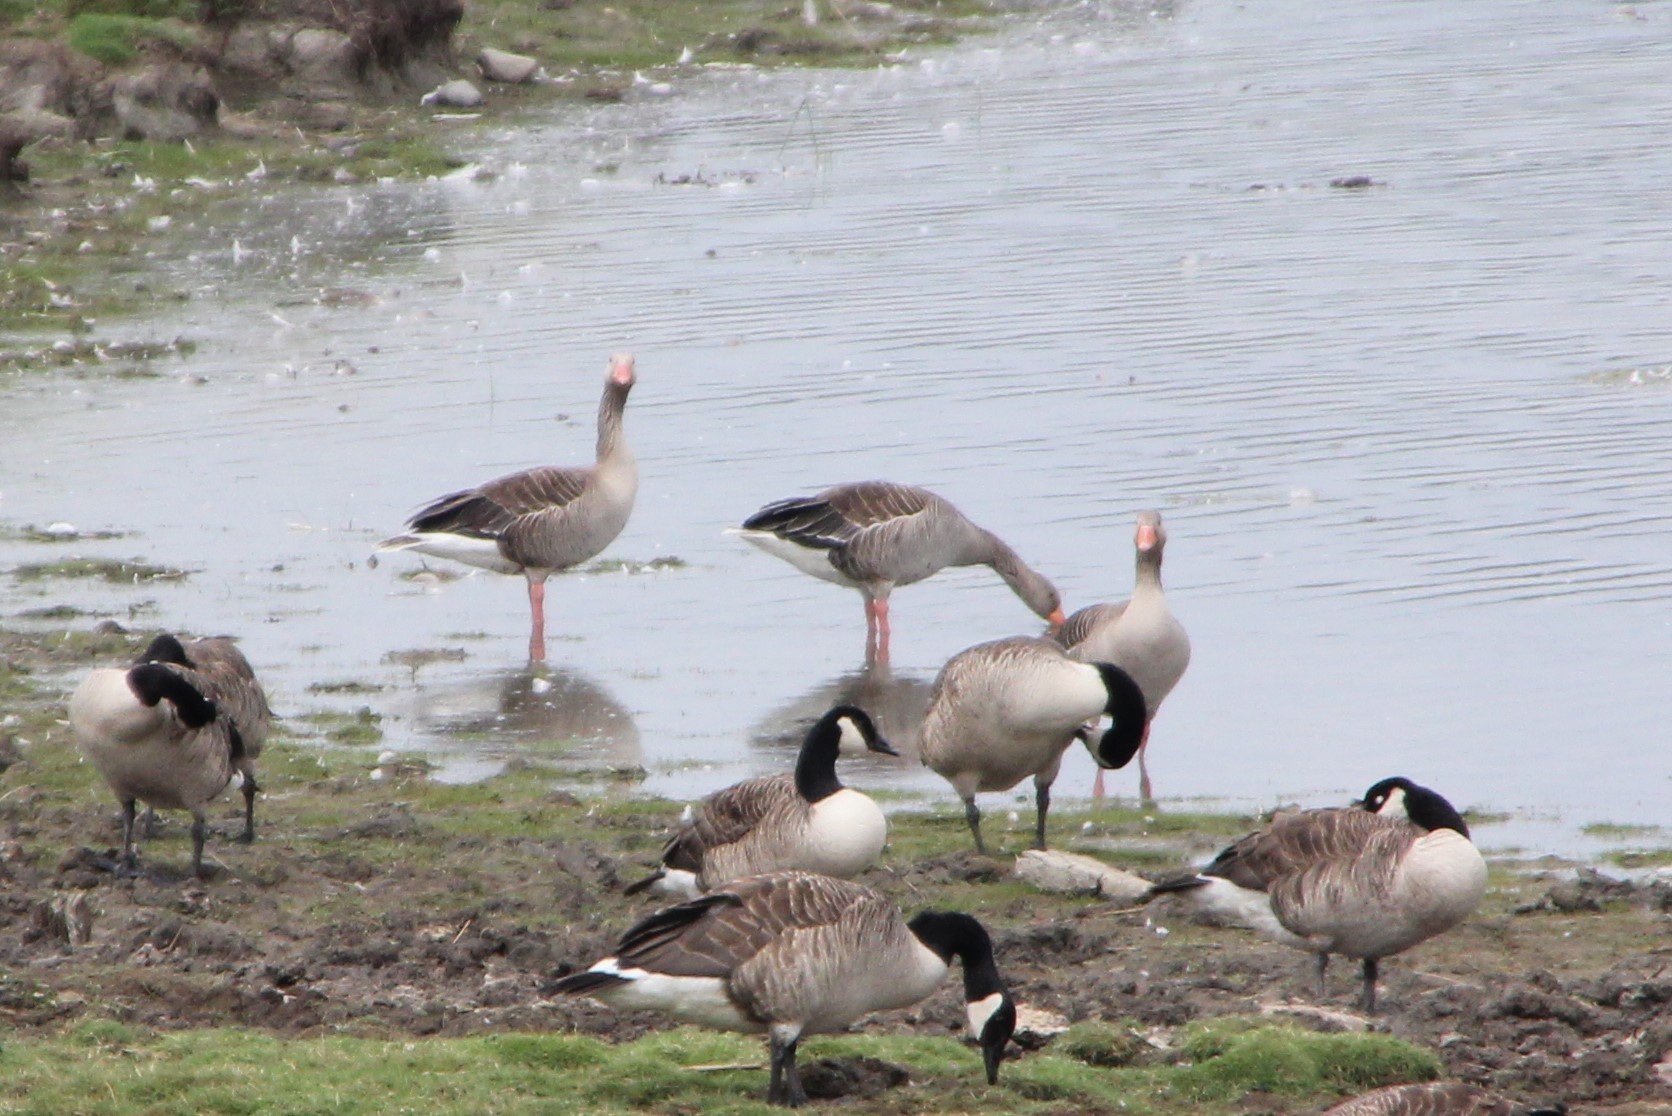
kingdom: Animalia
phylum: Chordata
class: Aves
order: Anseriformes
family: Anatidae
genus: Anser
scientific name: Anser anser
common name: Greylag goose
